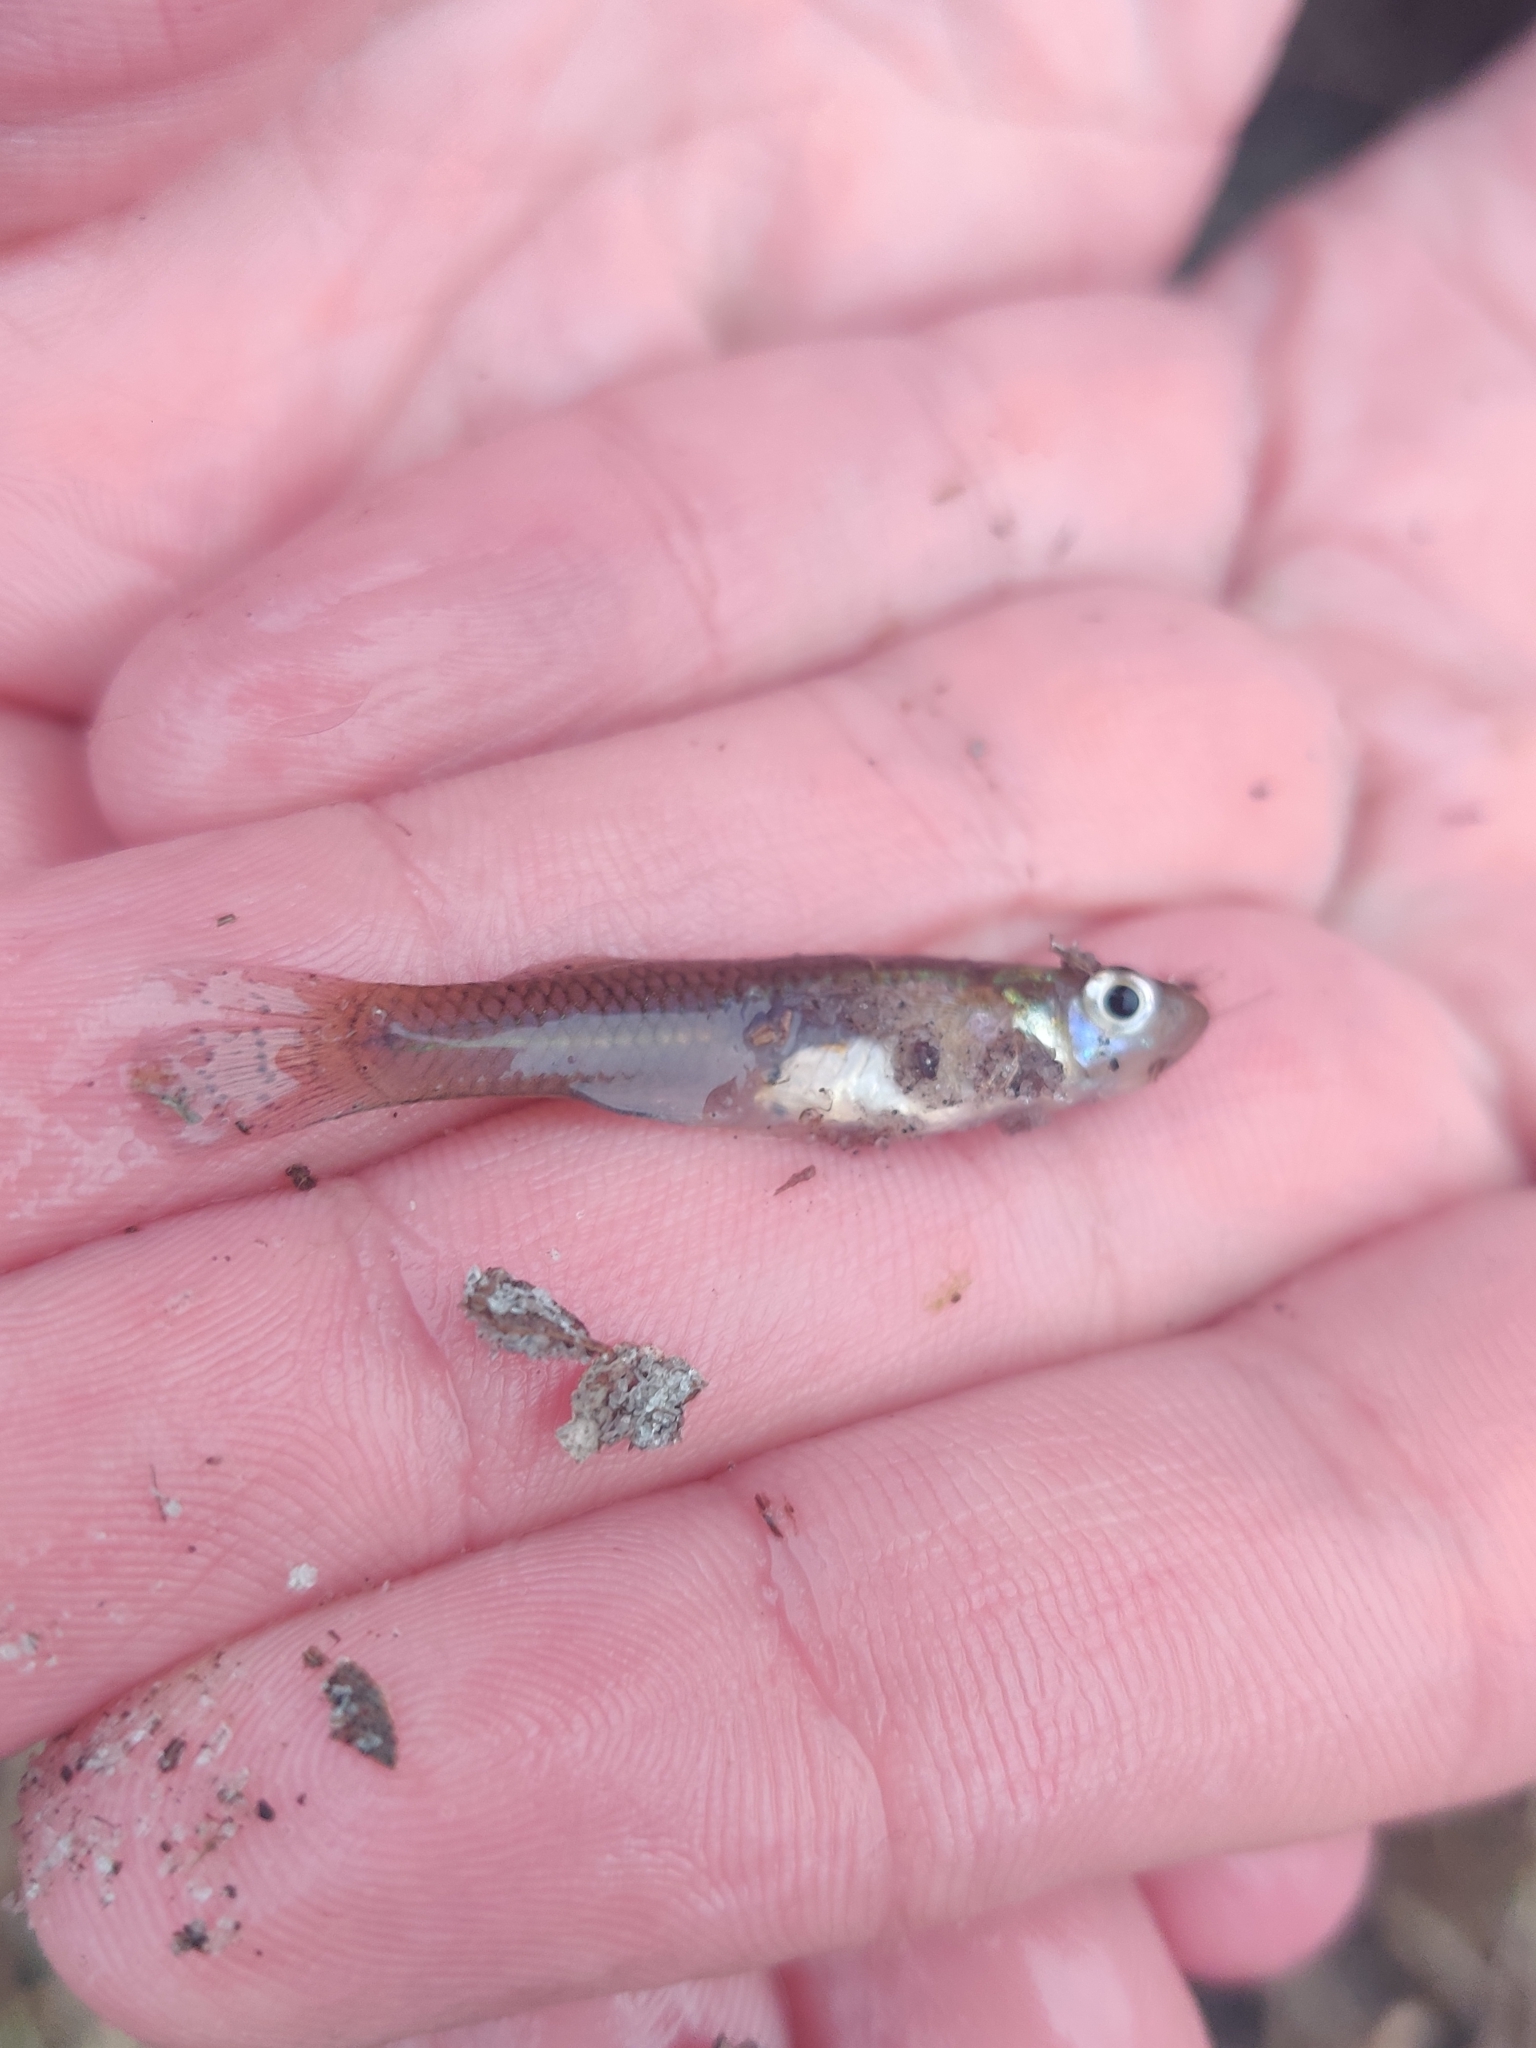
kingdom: Animalia
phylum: Chordata
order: Cyprinodontiformes
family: Poeciliidae
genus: Gambusia
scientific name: Gambusia holbrooki
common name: Eastern mosquitofish
